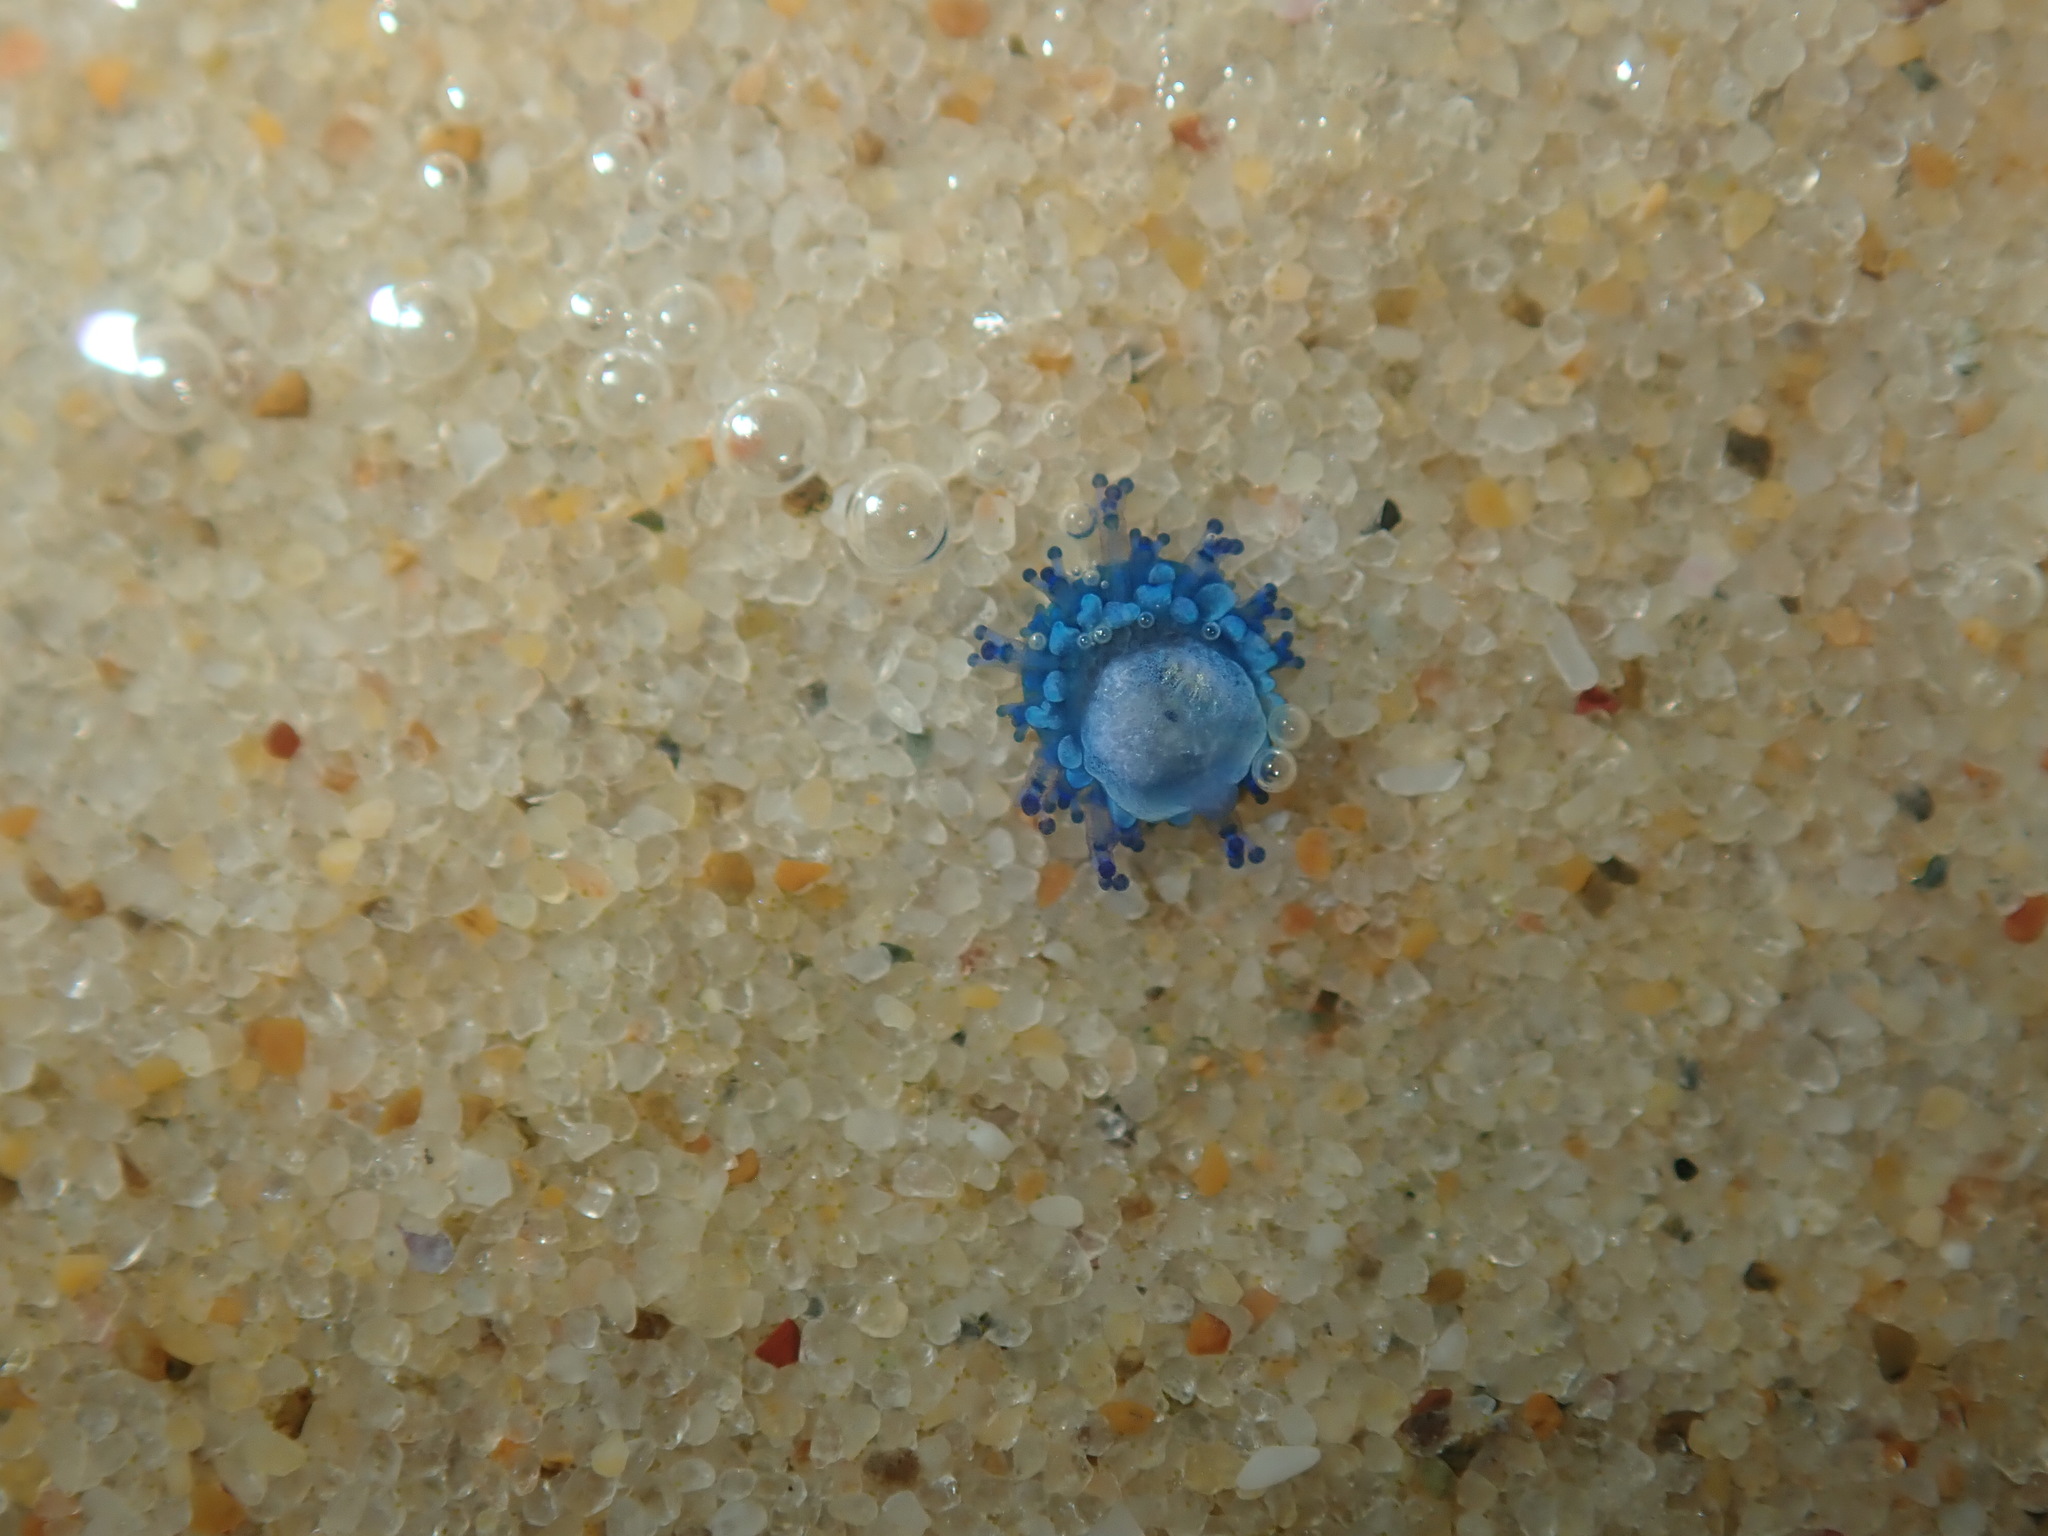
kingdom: Animalia
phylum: Cnidaria
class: Hydrozoa
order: Anthoathecata
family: Porpitidae
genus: Porpita
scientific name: Porpita porpita
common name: Blue button
